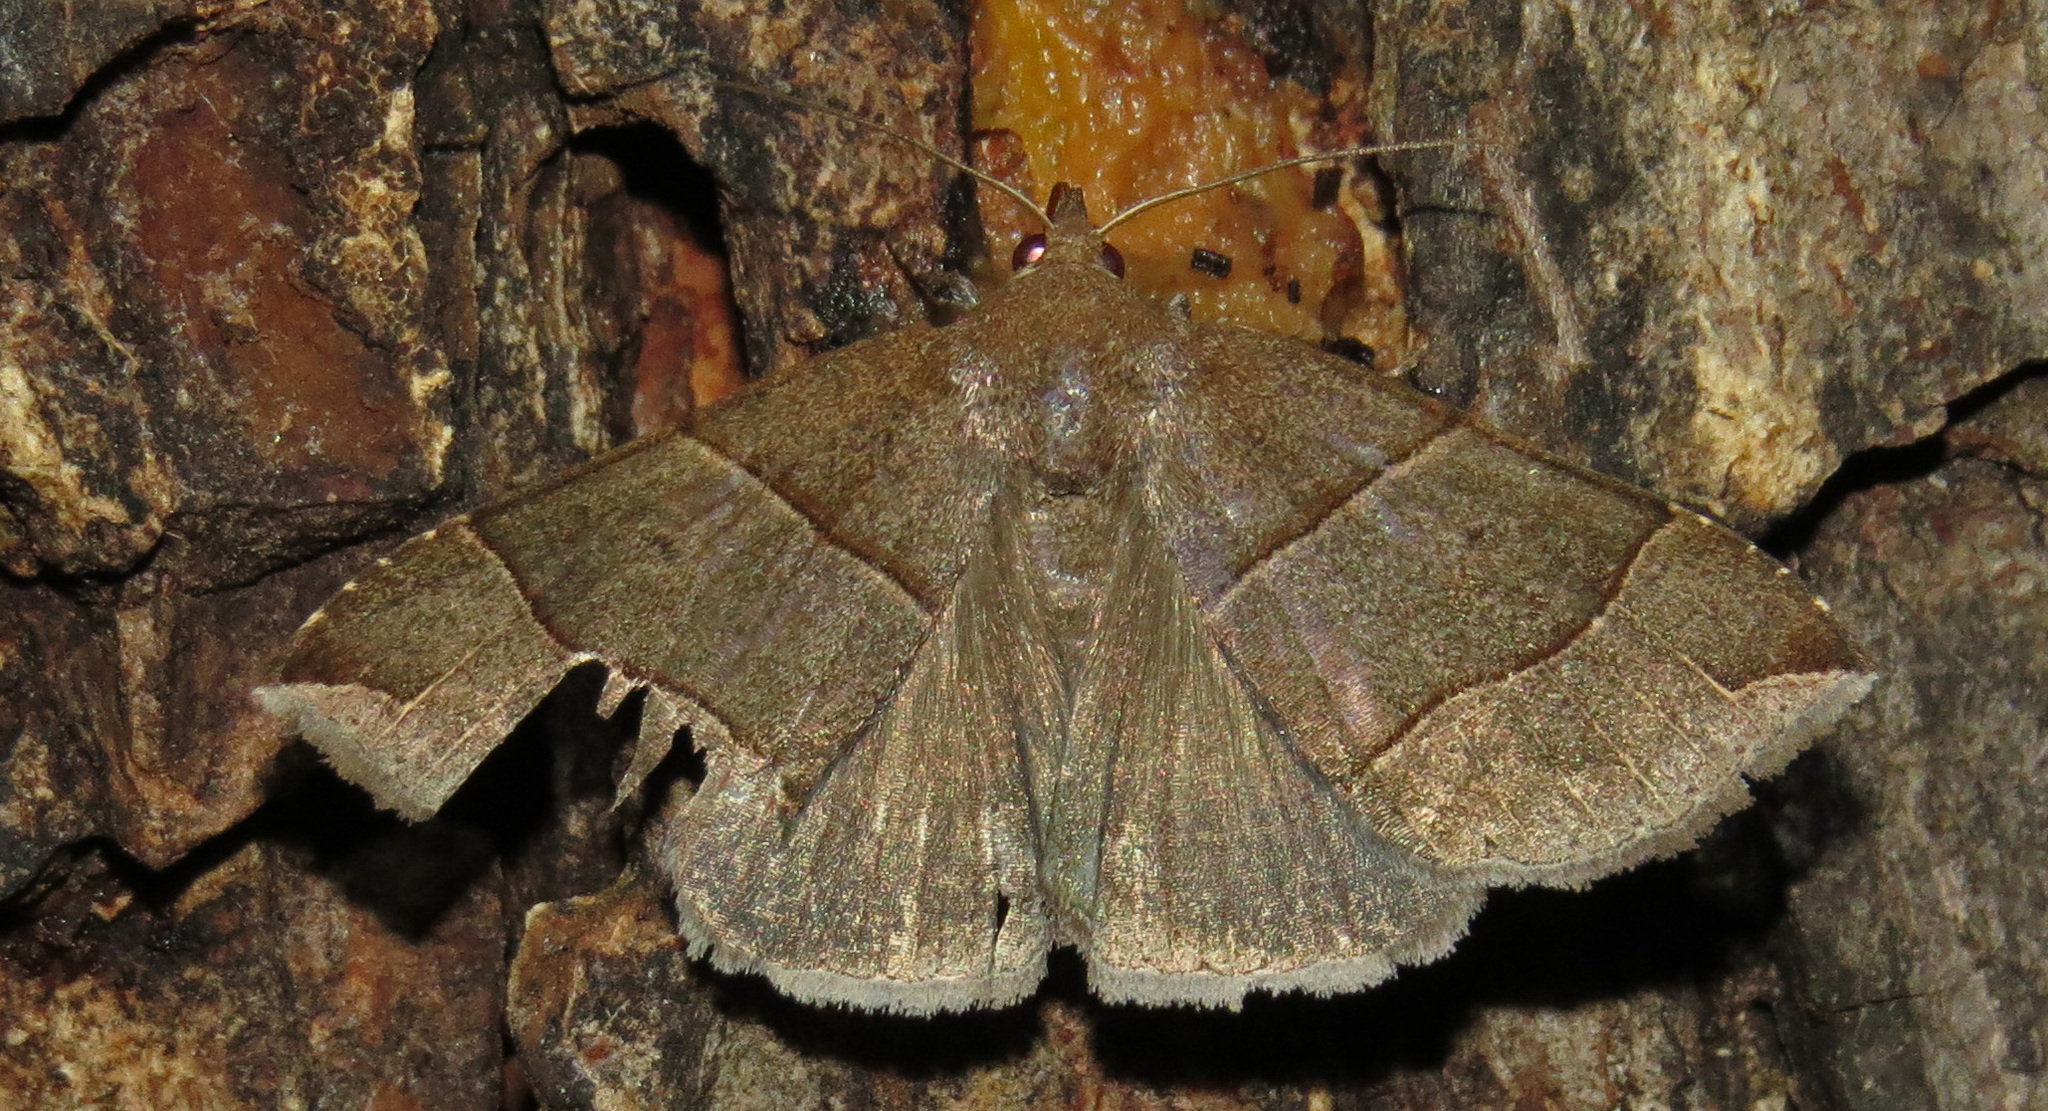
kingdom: Animalia
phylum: Arthropoda
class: Insecta
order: Lepidoptera
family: Erebidae
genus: Parallelia
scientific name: Parallelia bistriaris
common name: Maple looper moth
